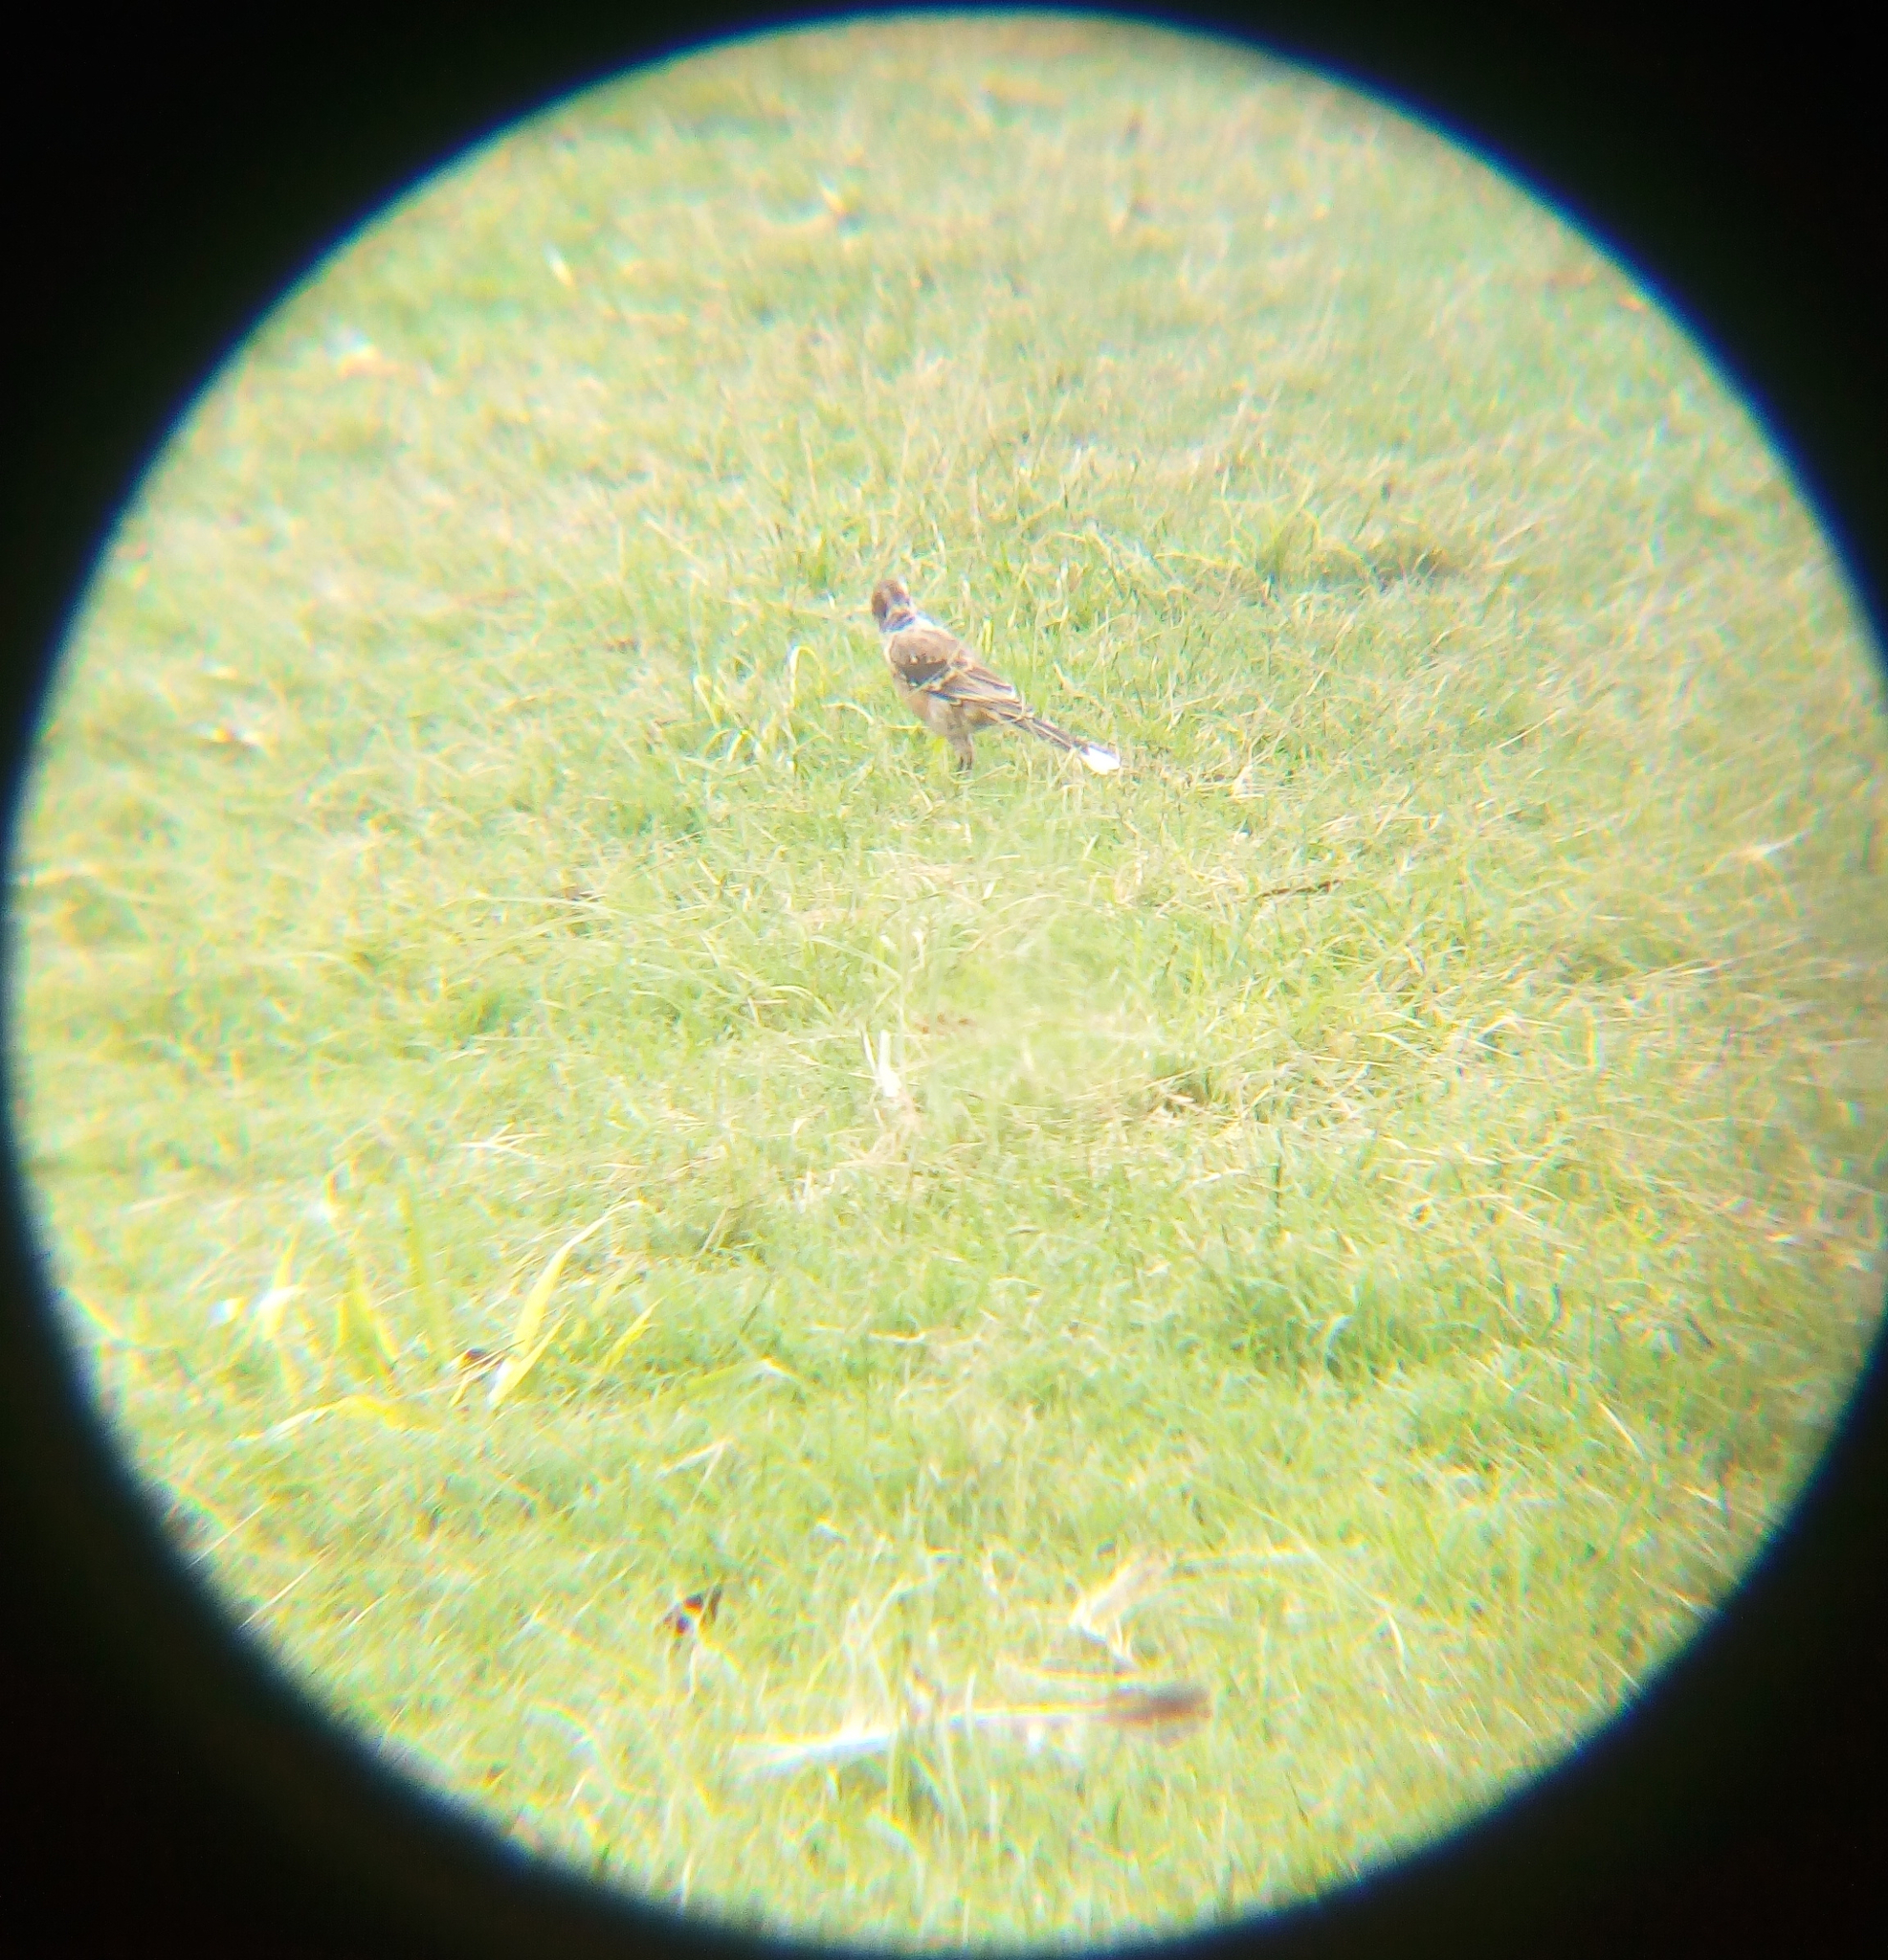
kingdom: Animalia
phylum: Chordata
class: Aves
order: Passeriformes
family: Mimidae
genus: Mimus
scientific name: Mimus saturninus
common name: Chalk-browed mockingbird
